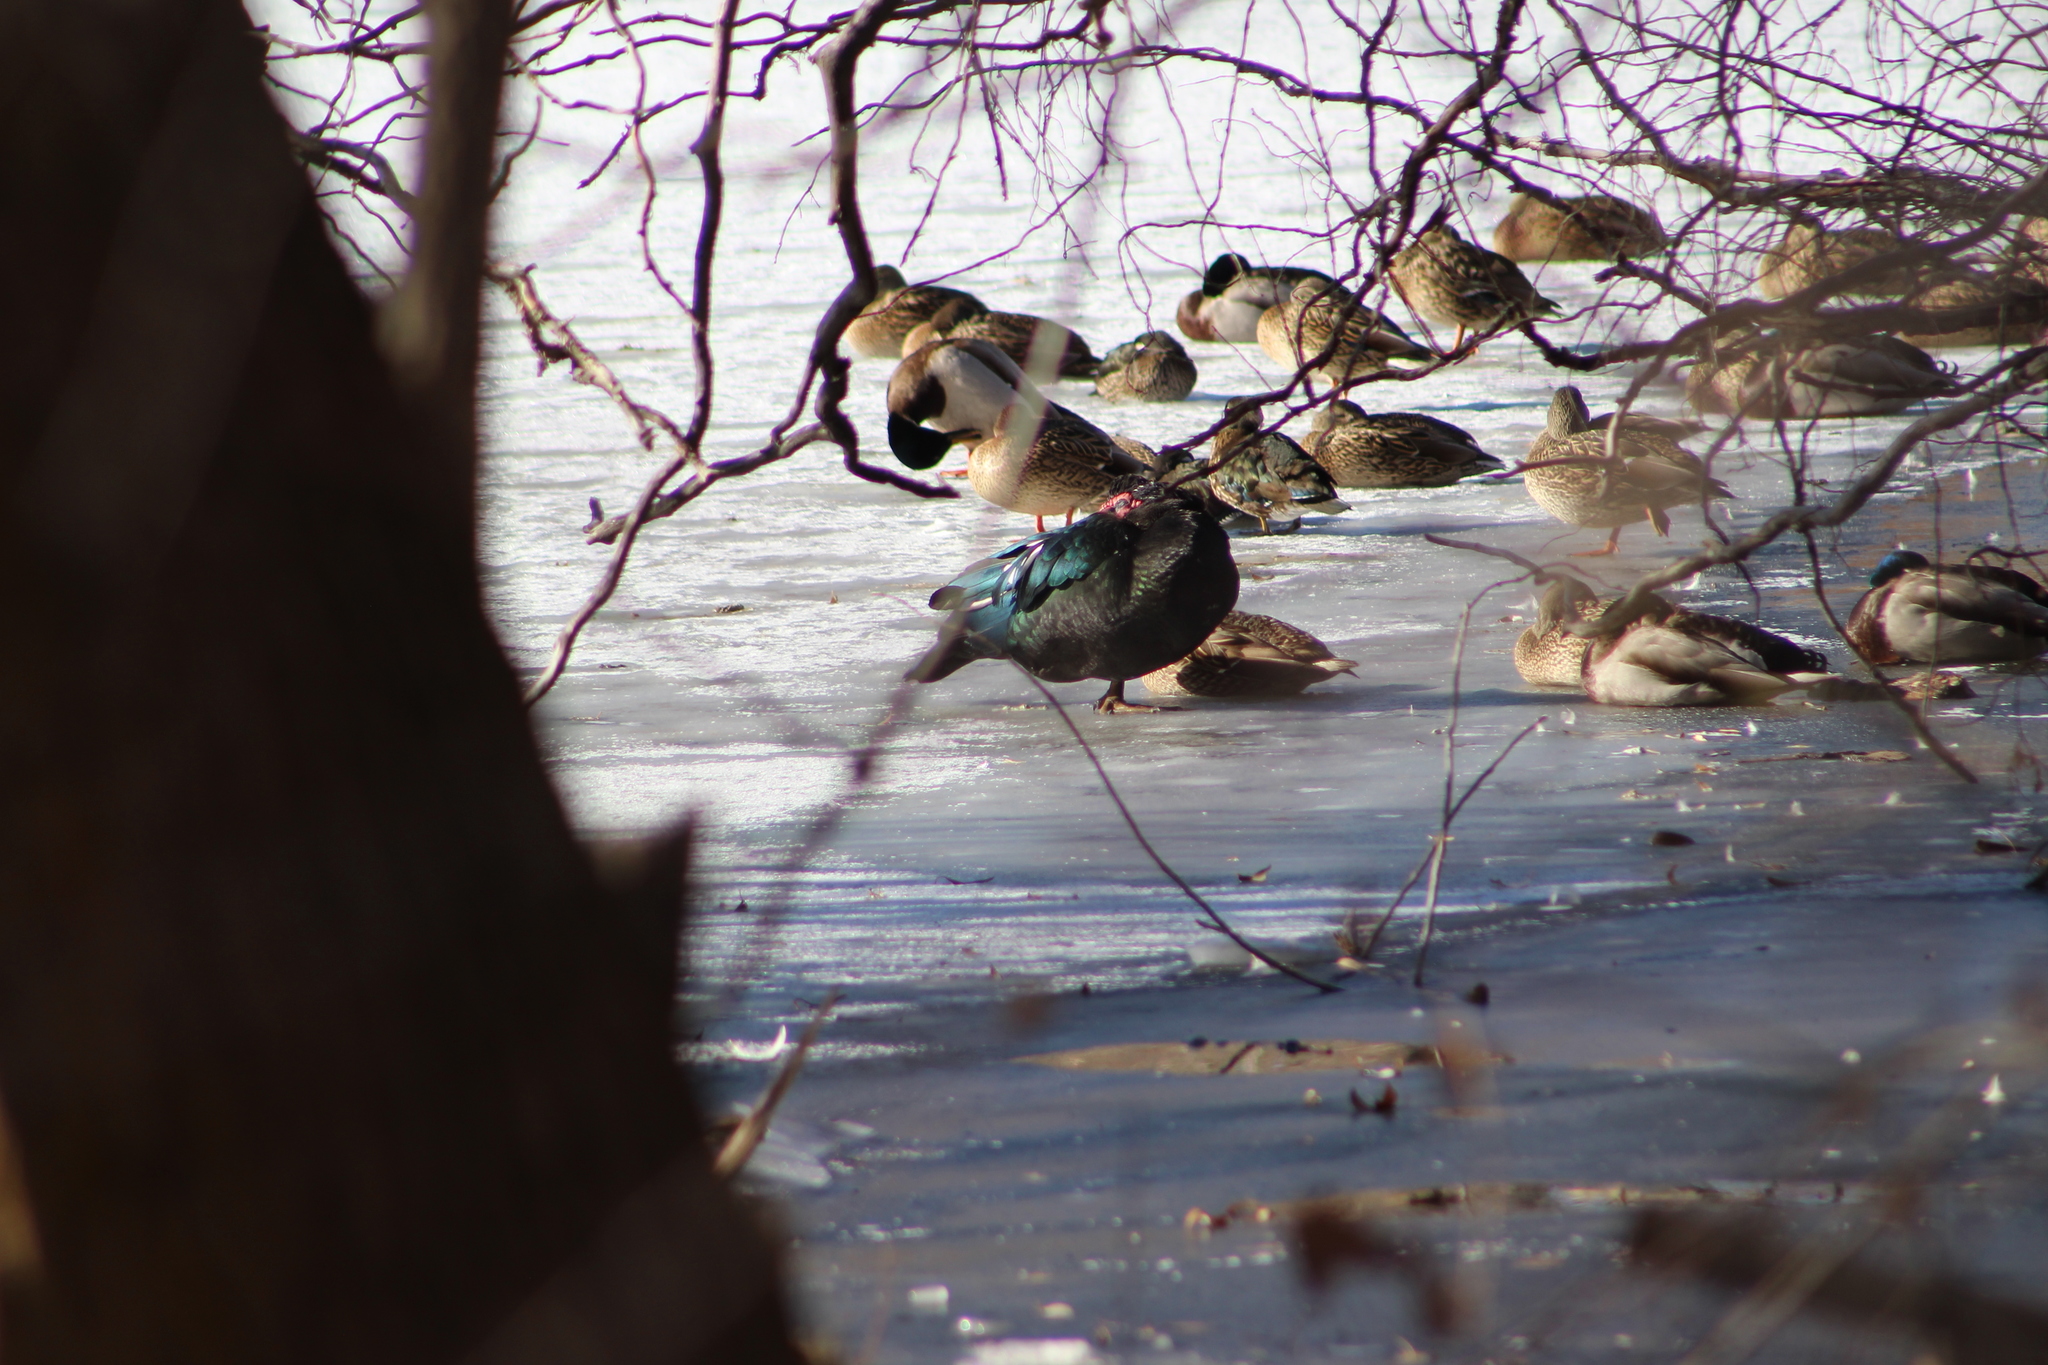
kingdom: Animalia
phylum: Chordata
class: Aves
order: Anseriformes
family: Anatidae
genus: Cairina
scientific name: Cairina moschata
